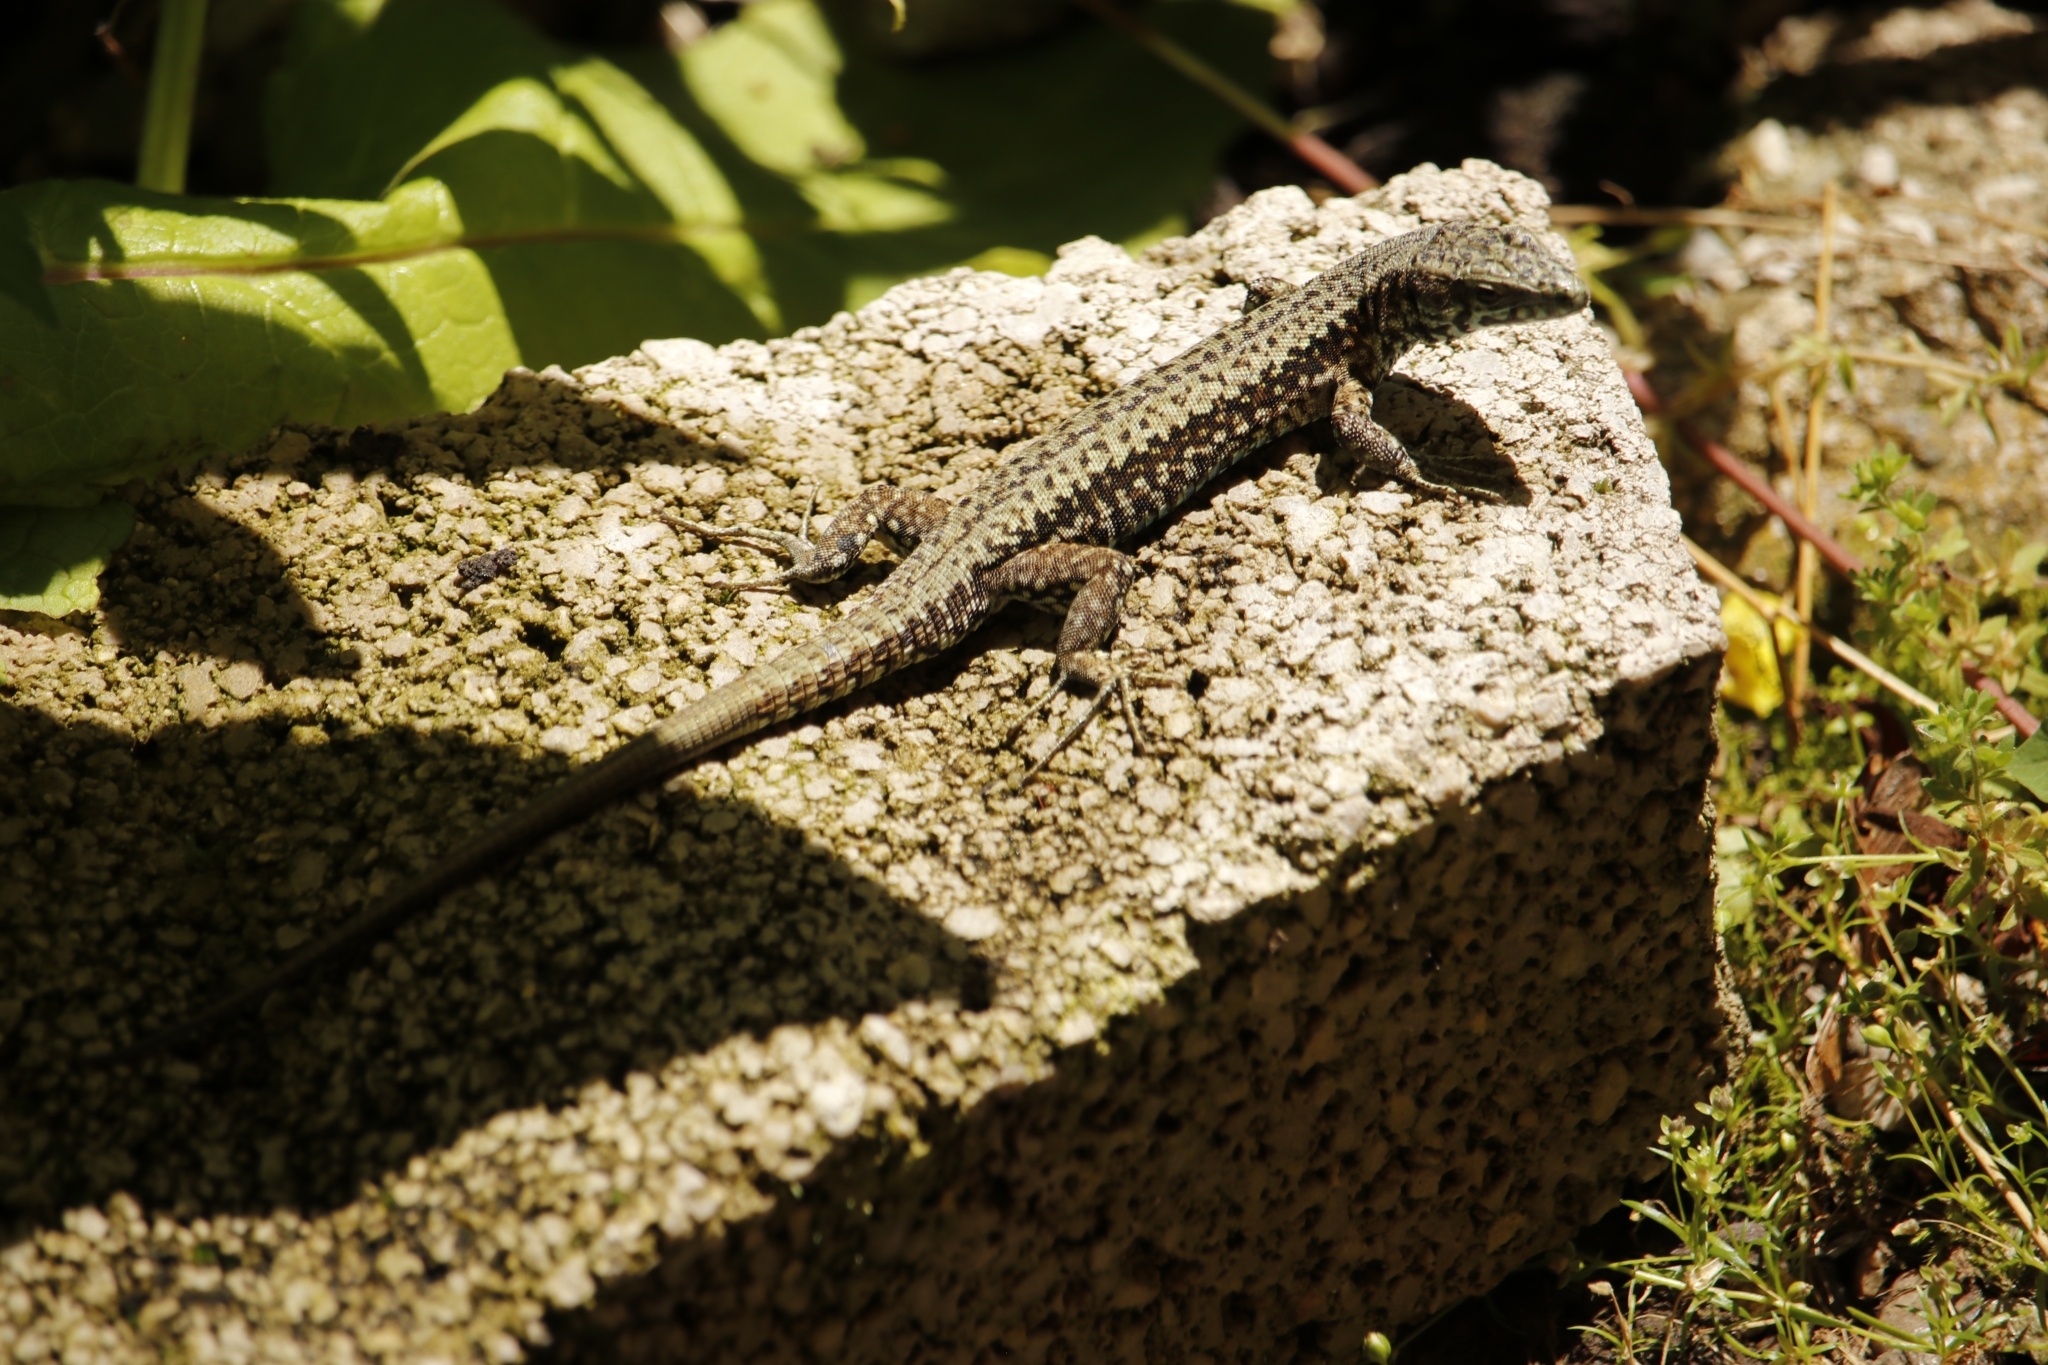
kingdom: Animalia
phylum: Chordata
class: Squamata
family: Lacertidae
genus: Podarcis
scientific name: Podarcis muralis
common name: Common wall lizard
